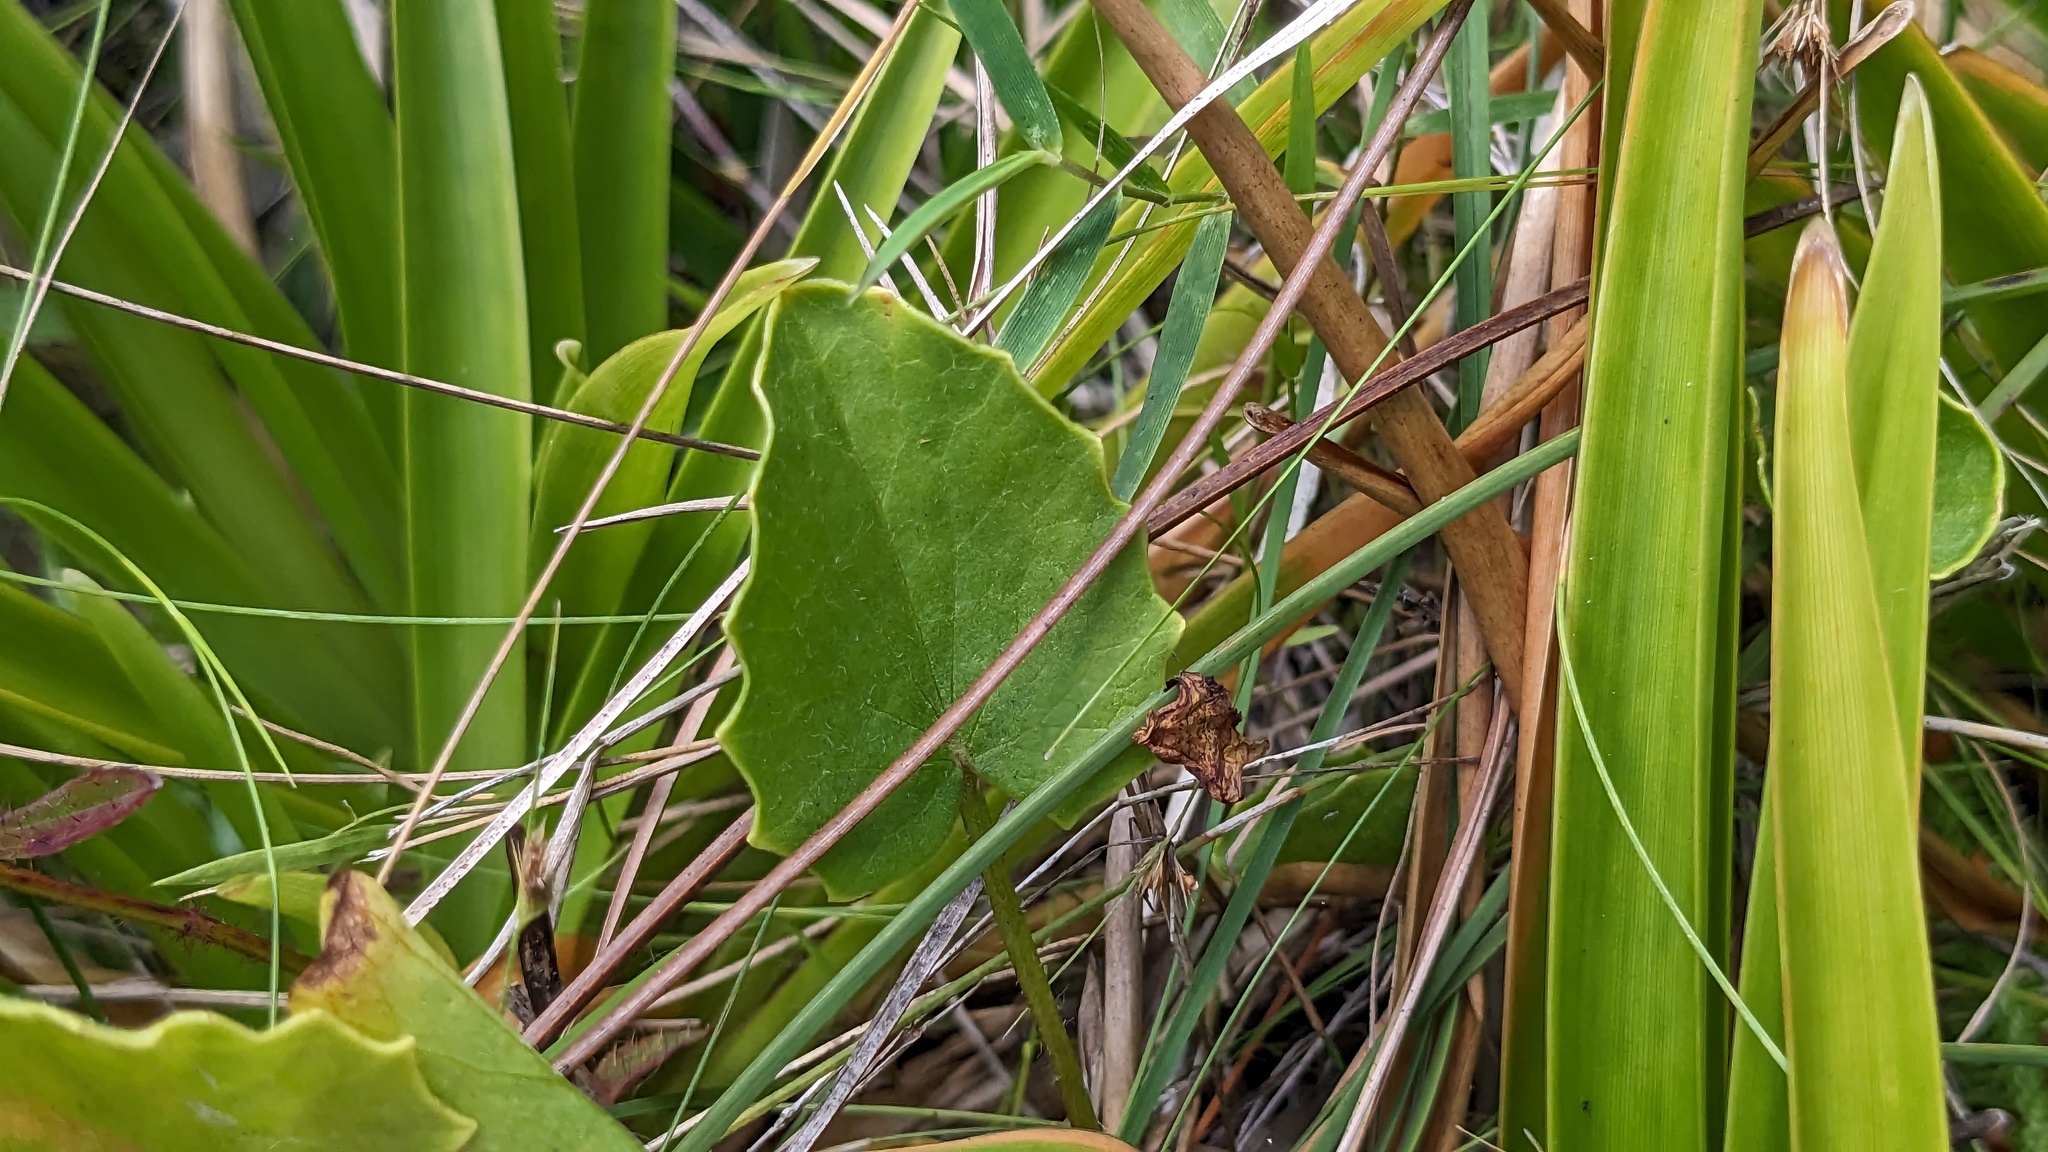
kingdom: Plantae
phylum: Tracheophyta
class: Magnoliopsida
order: Apiales
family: Apiaceae
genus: Centella
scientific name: Centella erecta
